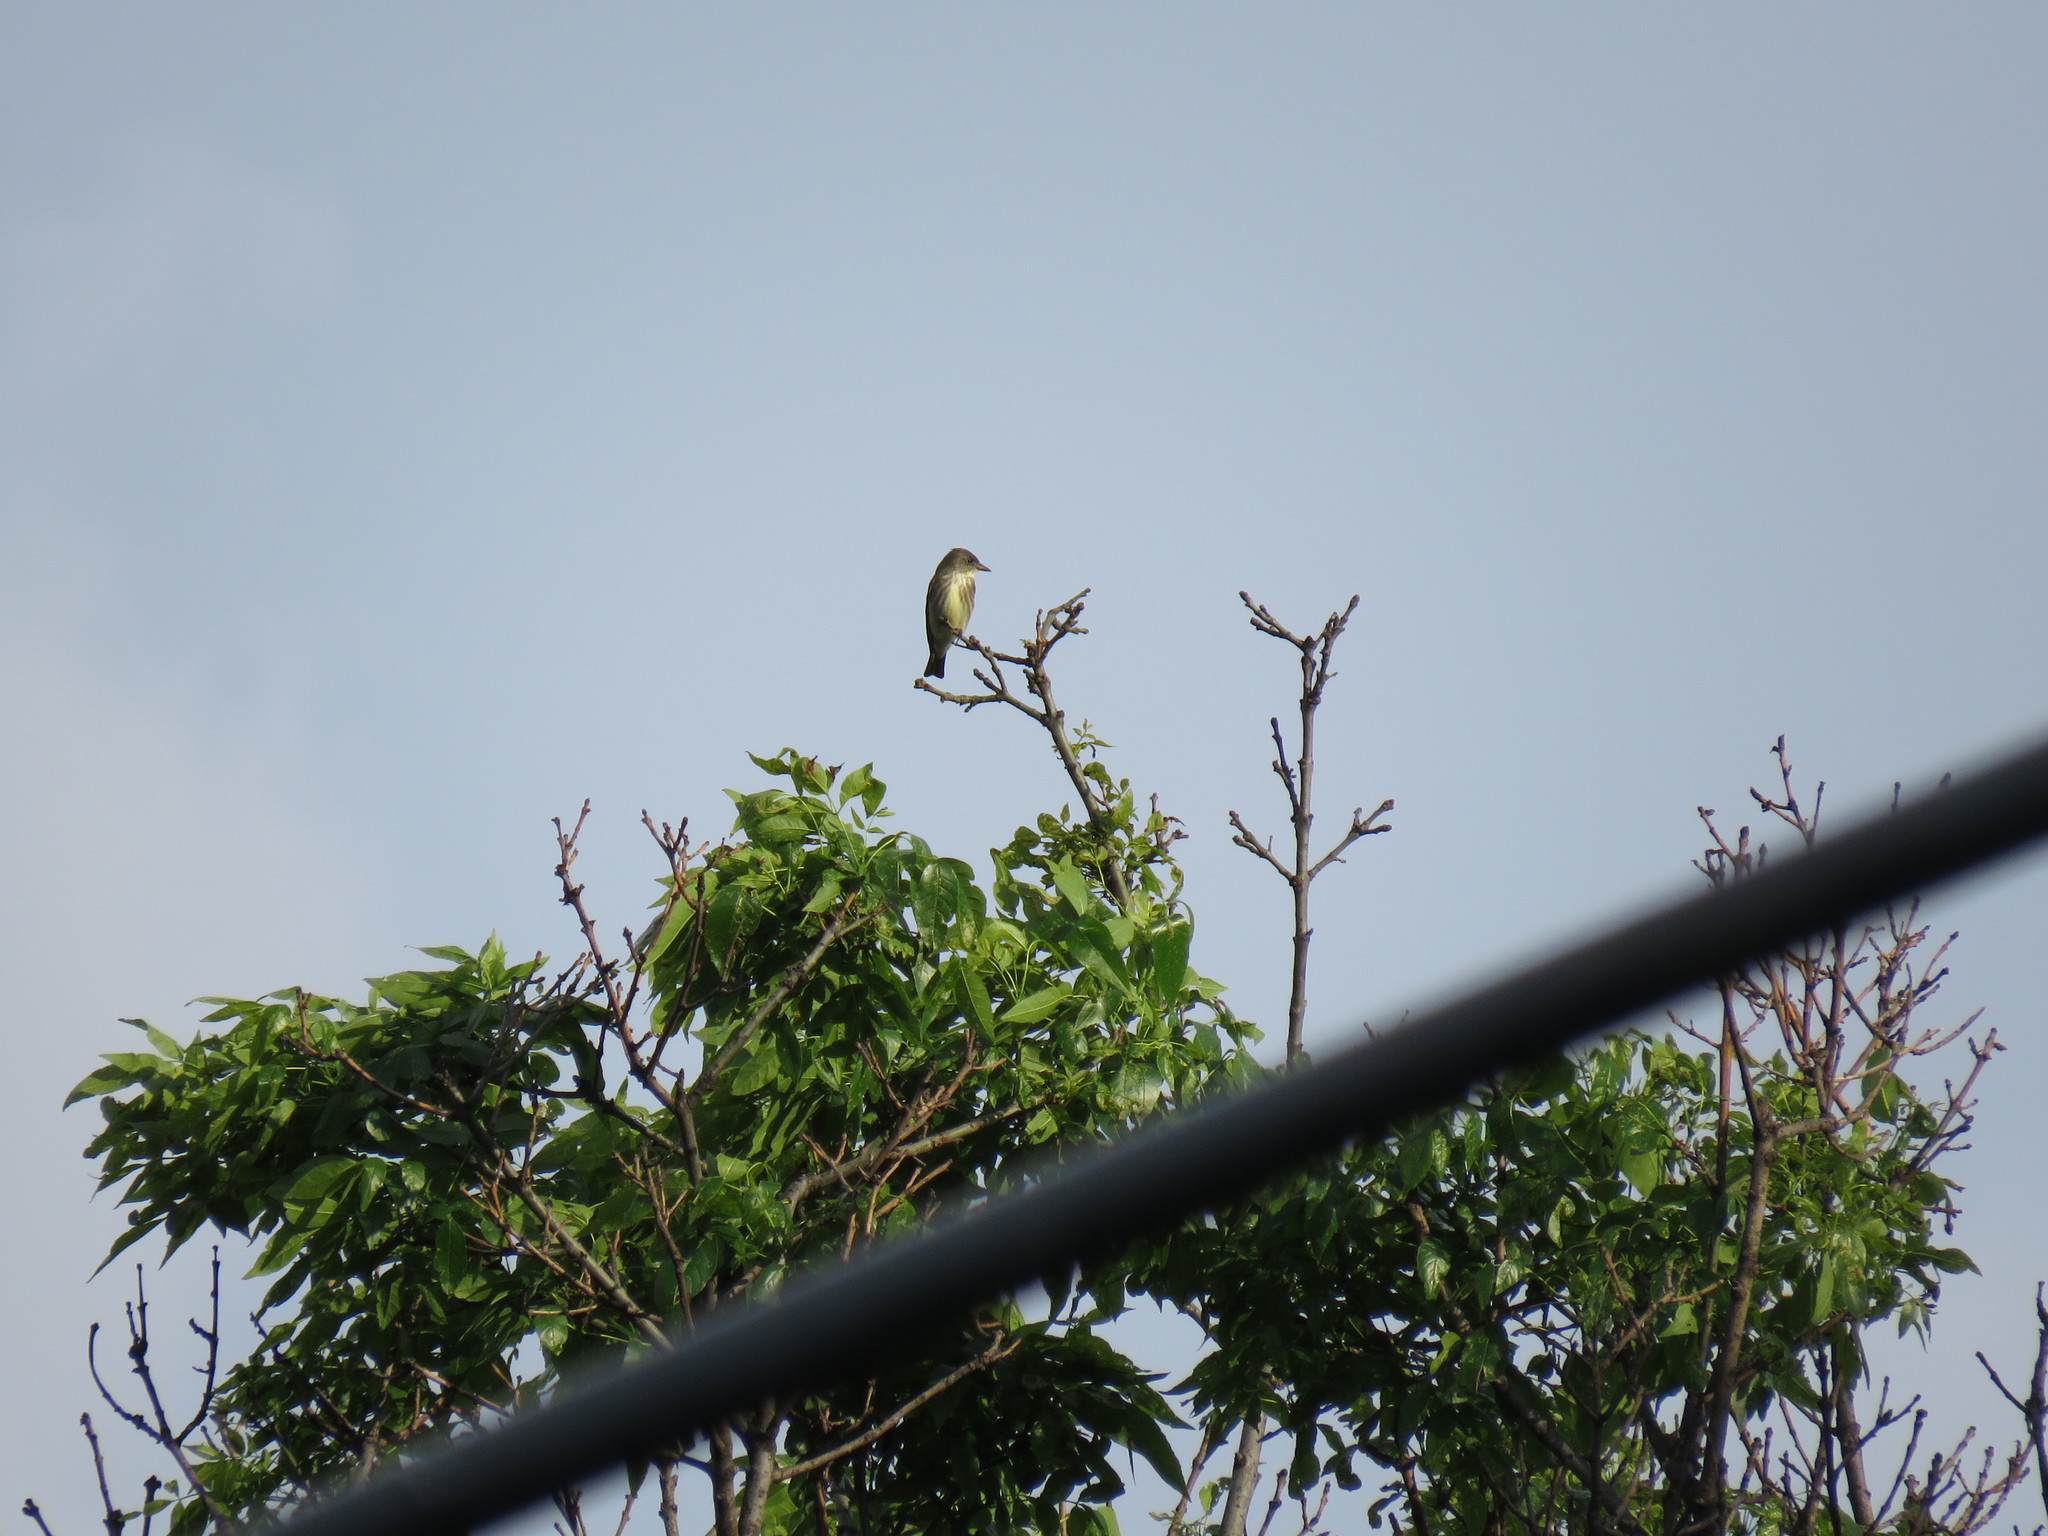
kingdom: Animalia
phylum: Chordata
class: Aves
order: Passeriformes
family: Tyrannidae
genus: Contopus
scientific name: Contopus cooperi
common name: Olive-sided flycatcher
